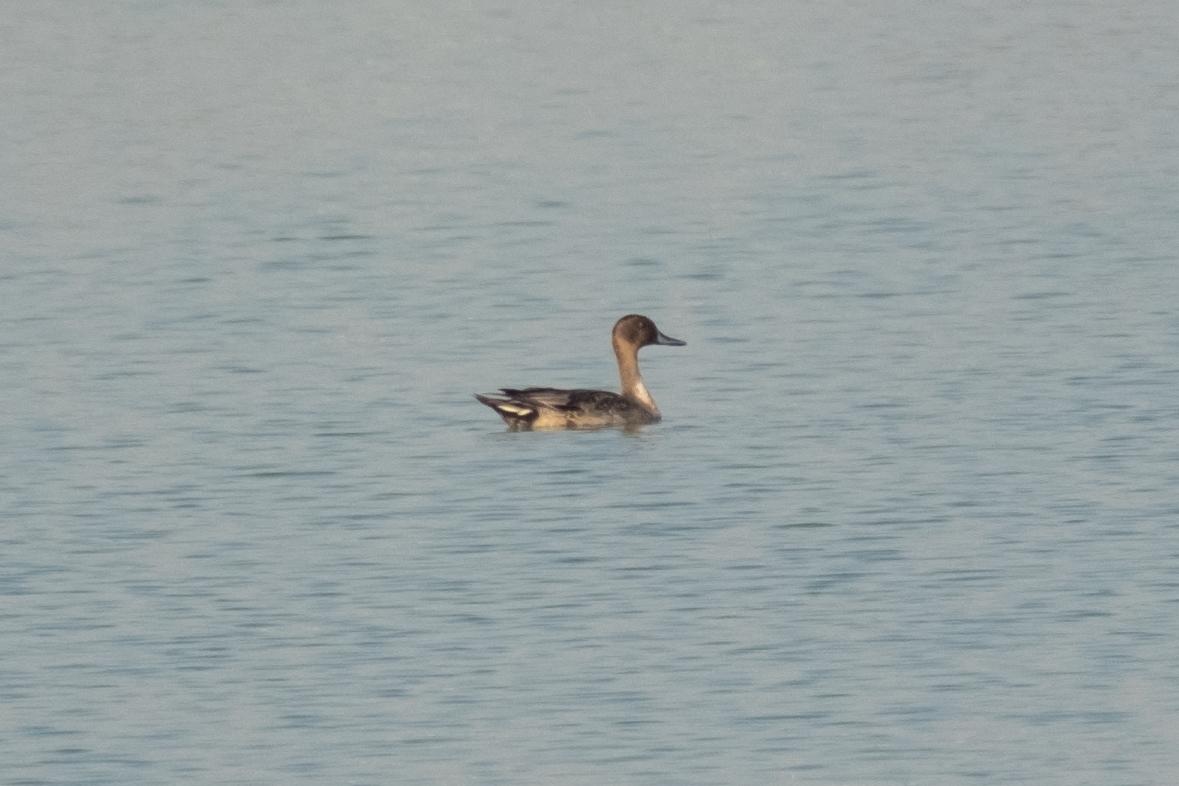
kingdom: Animalia
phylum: Chordata
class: Aves
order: Anseriformes
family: Anatidae
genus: Anas
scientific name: Anas acuta
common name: Northern pintail
